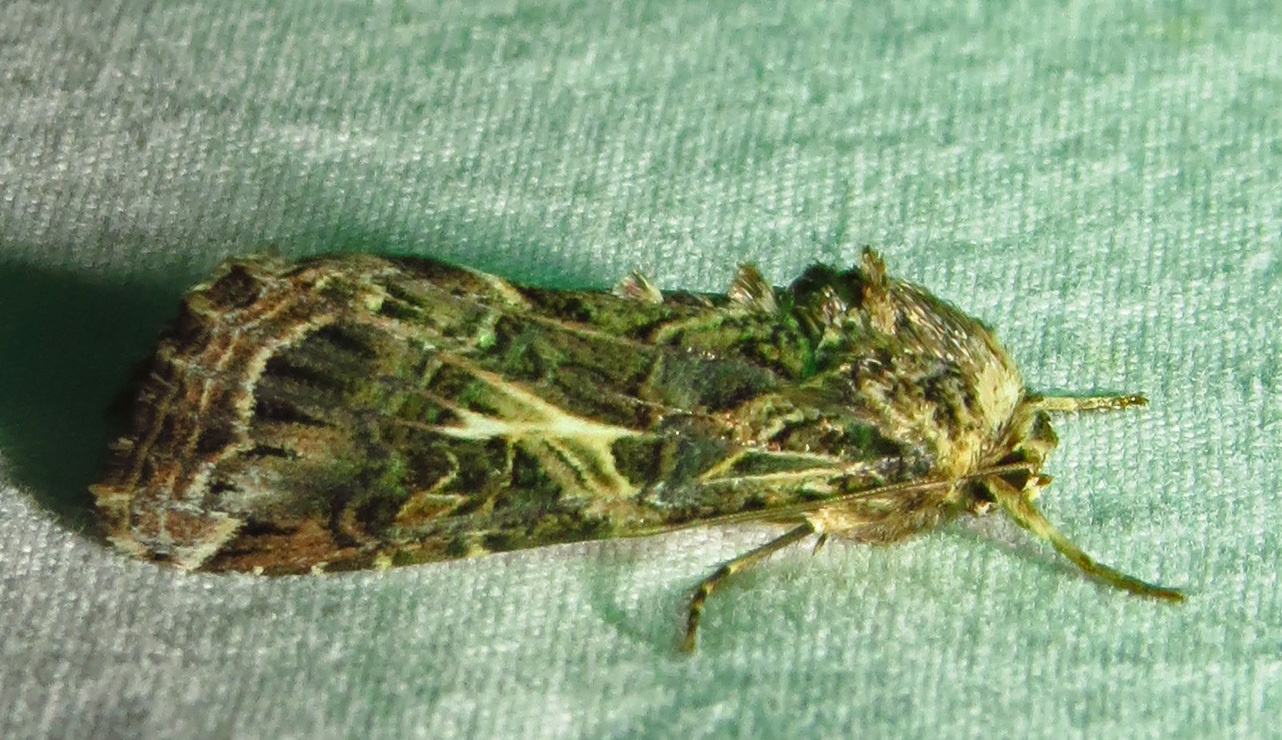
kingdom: Animalia
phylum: Arthropoda
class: Insecta
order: Lepidoptera
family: Noctuidae
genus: Spodoptera
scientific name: Spodoptera ornithogalli
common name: Yellow-striped armyworm
